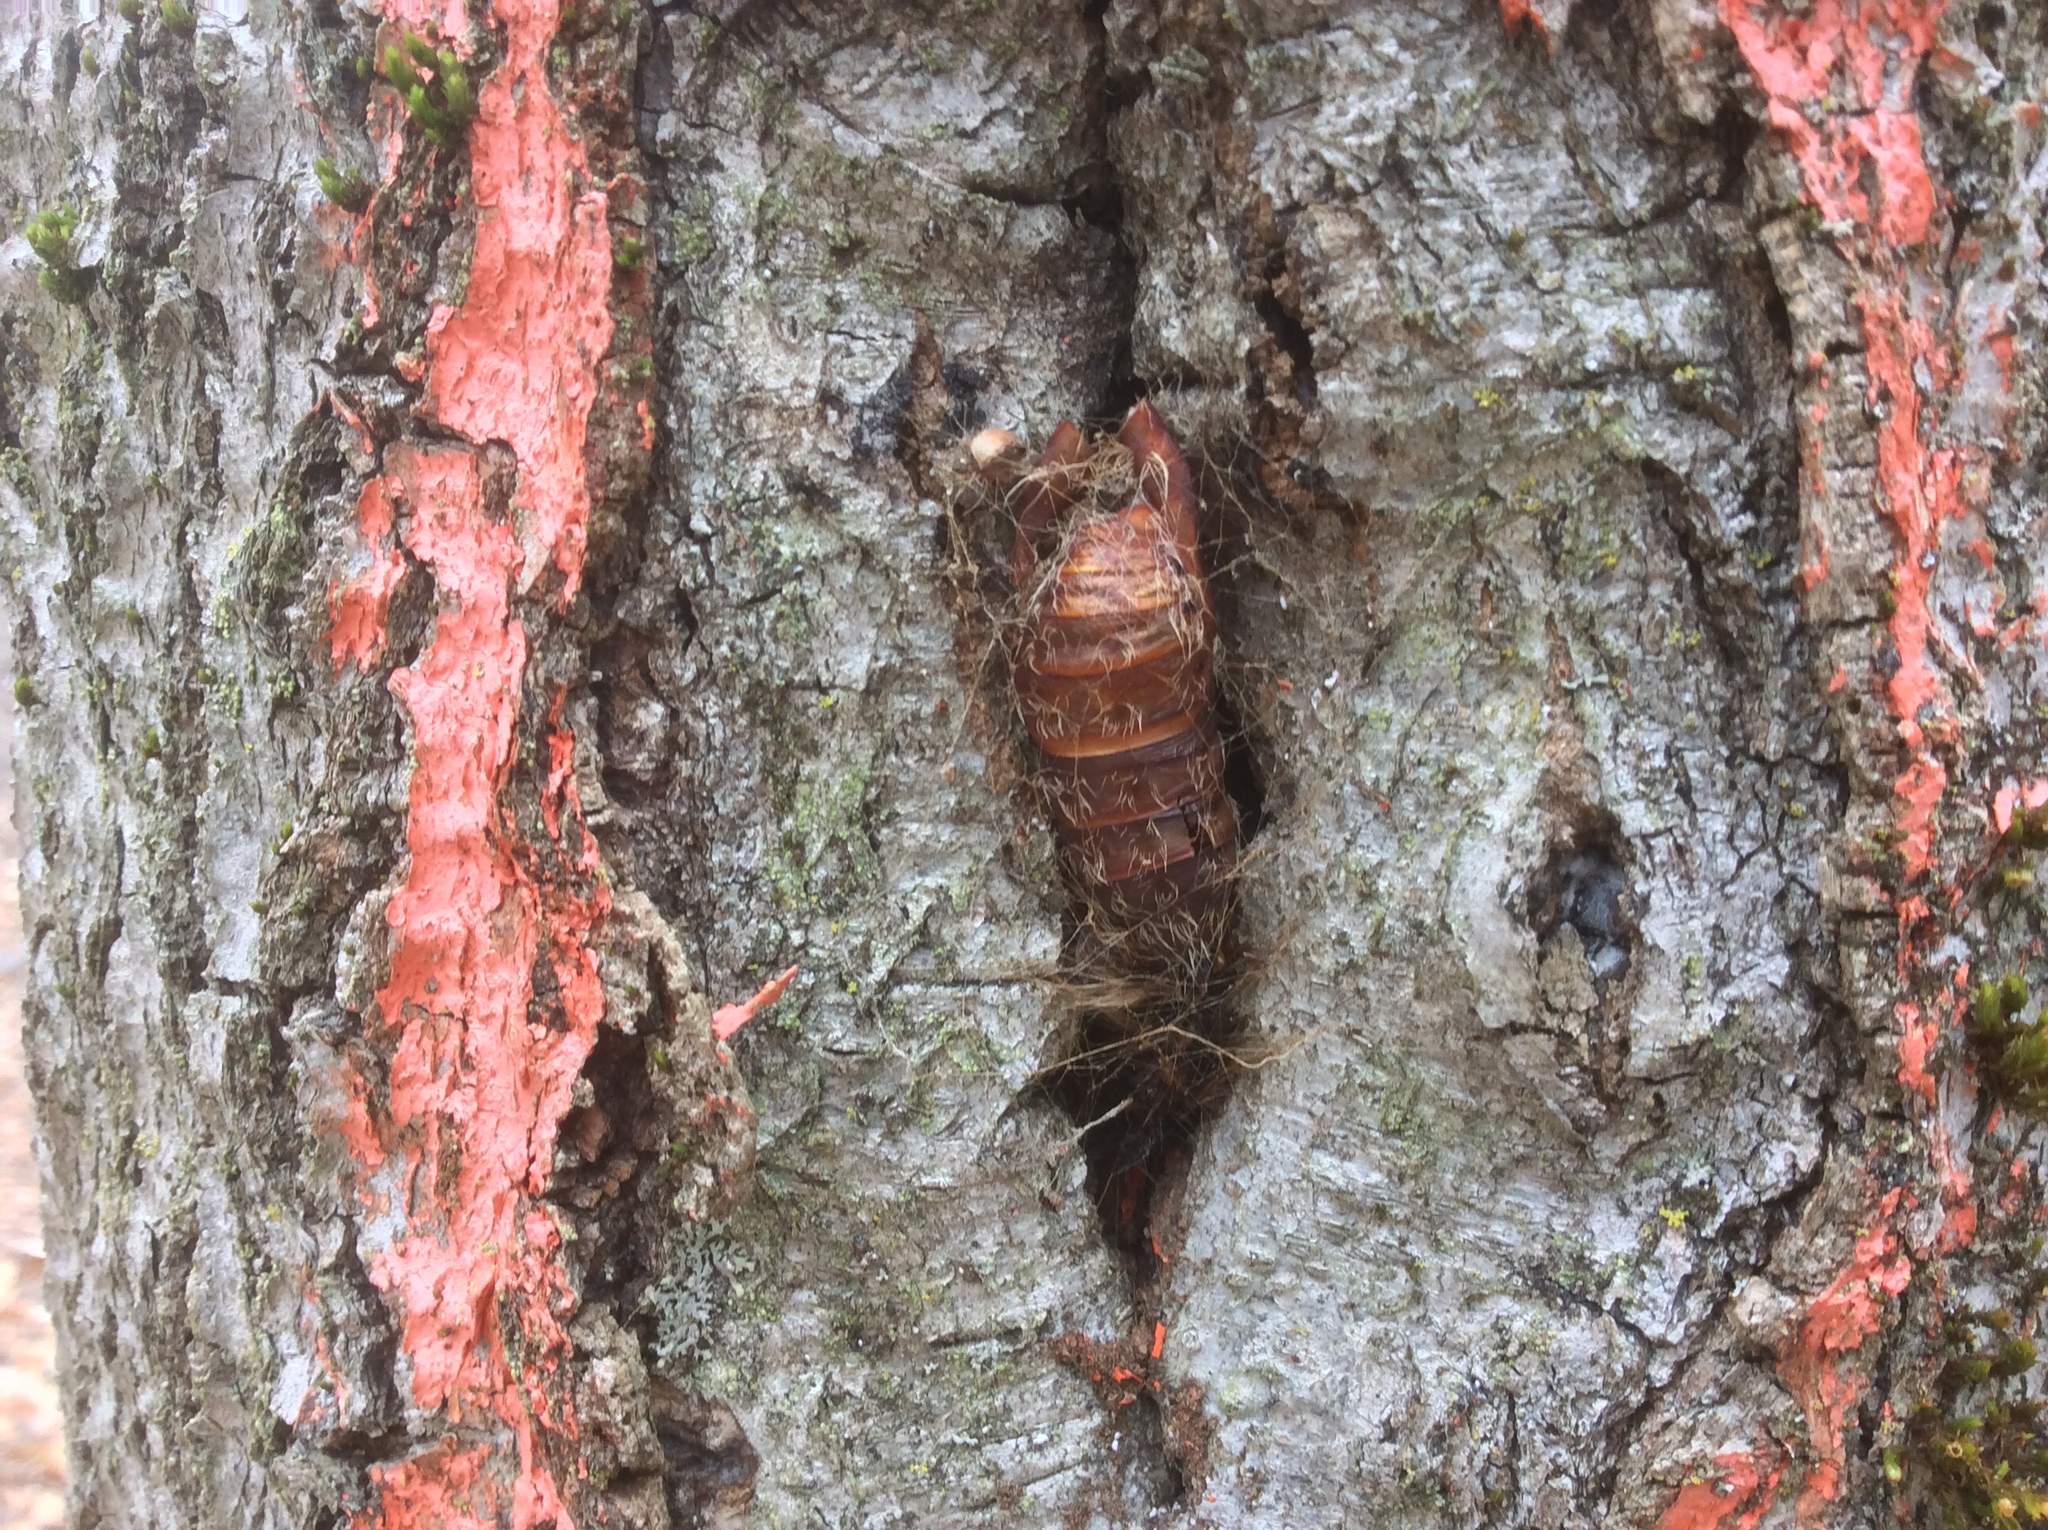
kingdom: Animalia
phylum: Arthropoda
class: Insecta
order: Lepidoptera
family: Erebidae
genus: Lymantria
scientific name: Lymantria dispar
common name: Gypsy moth
